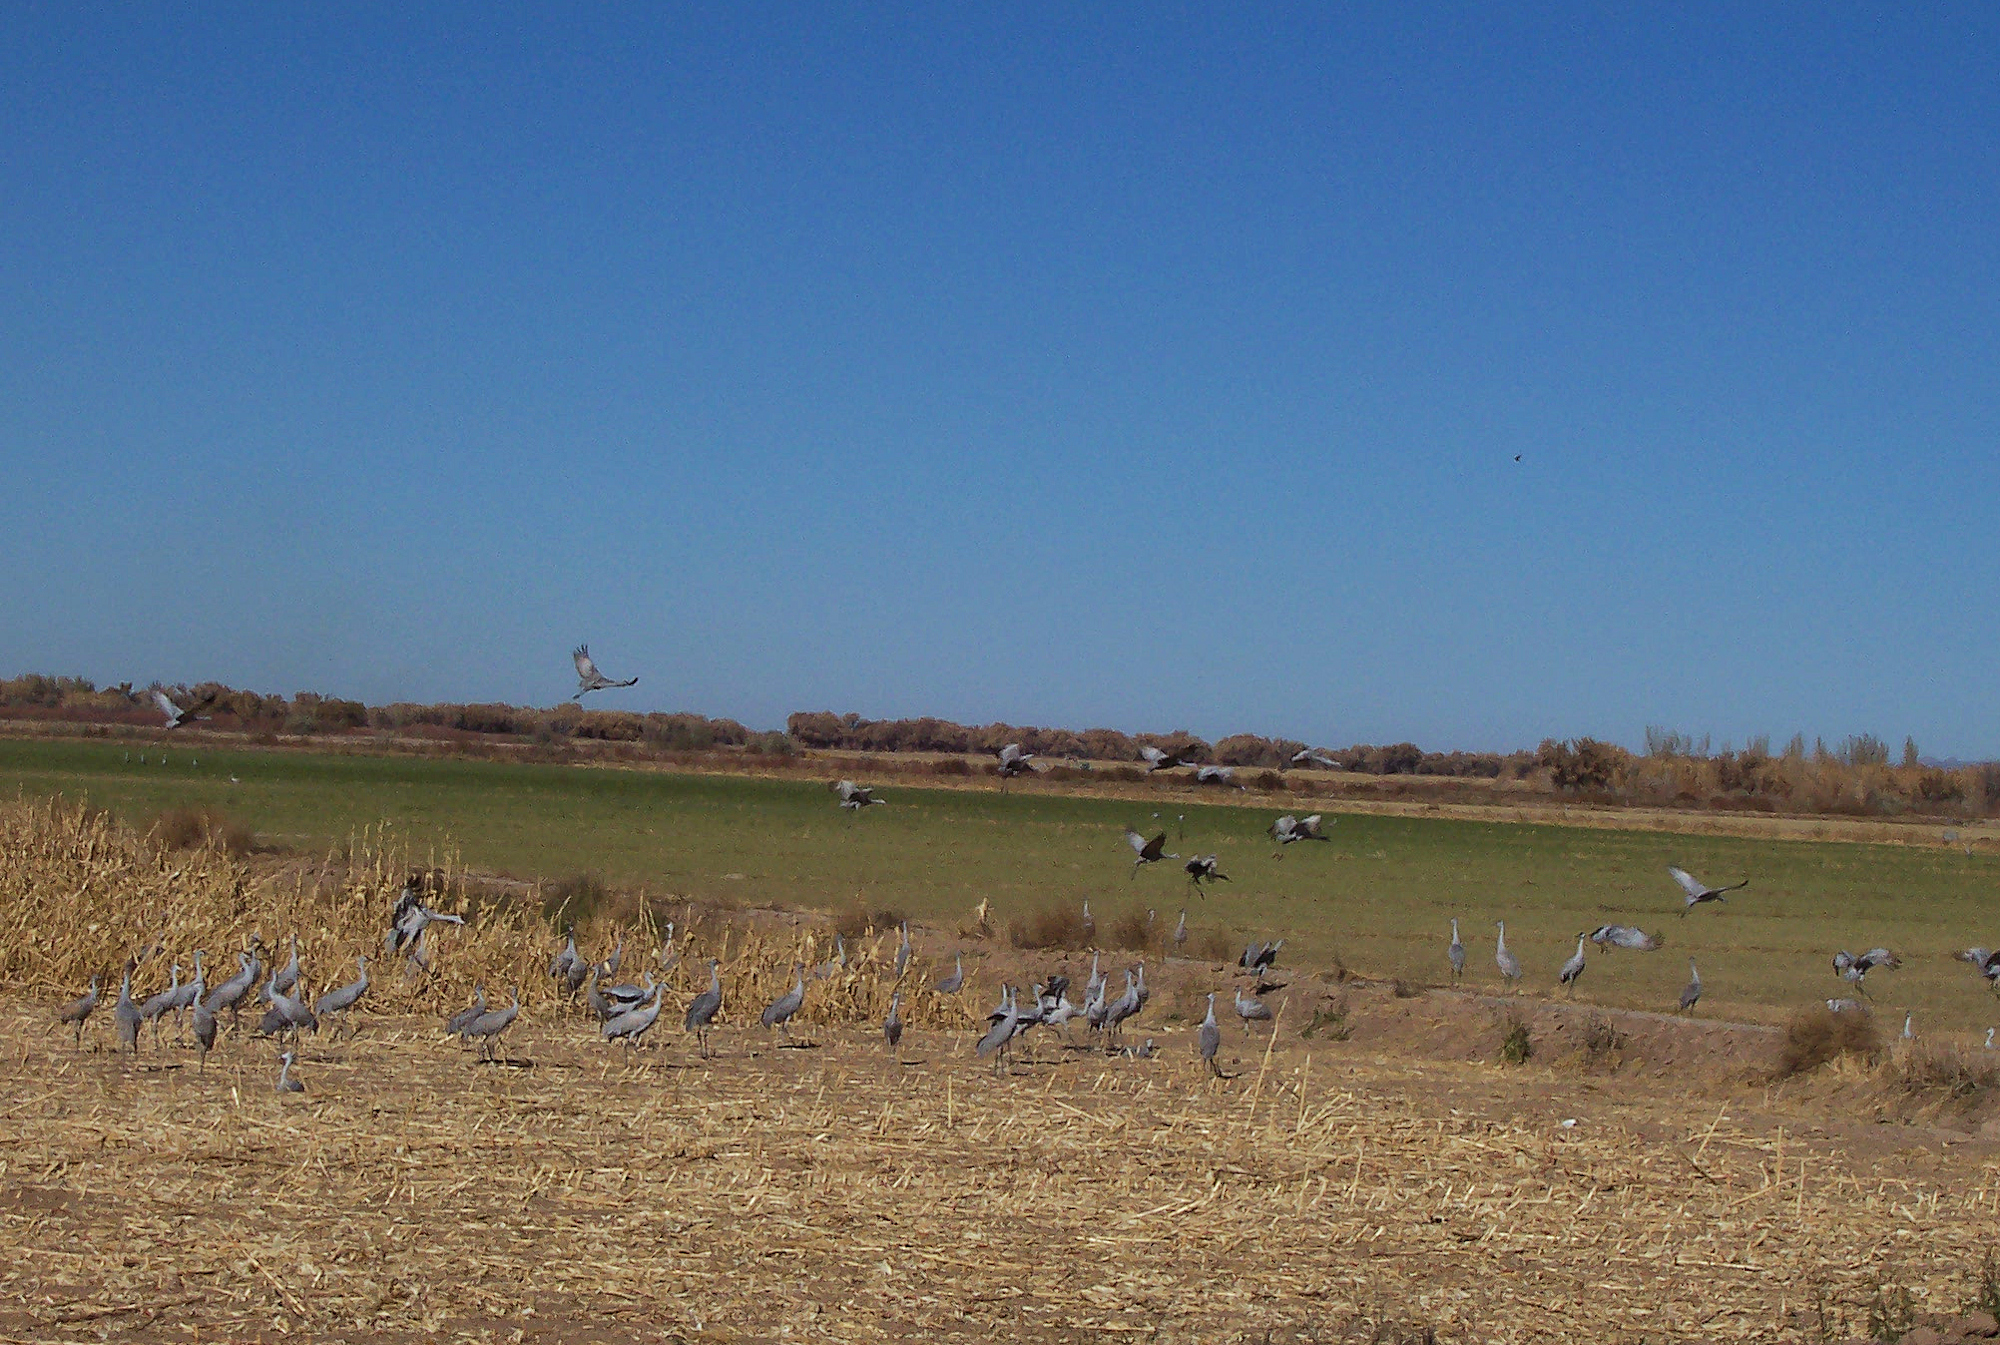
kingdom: Animalia
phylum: Chordata
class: Aves
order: Gruiformes
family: Gruidae
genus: Grus
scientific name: Grus canadensis
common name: Sandhill crane
